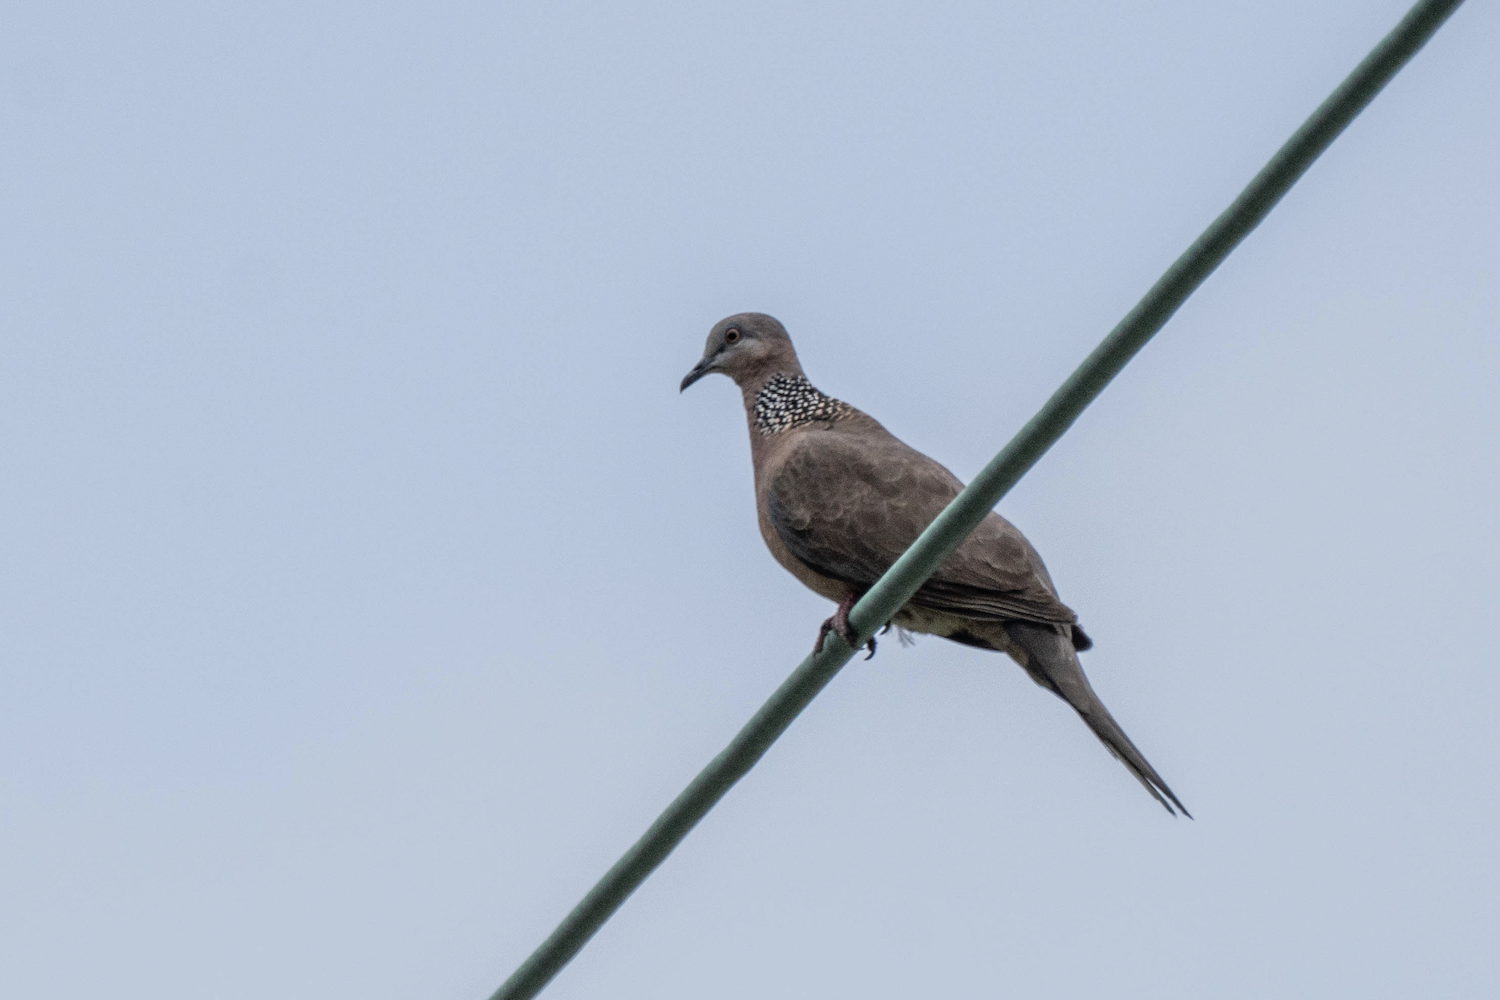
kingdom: Animalia
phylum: Chordata
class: Aves
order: Columbiformes
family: Columbidae
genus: Spilopelia
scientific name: Spilopelia chinensis
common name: Spotted dove
